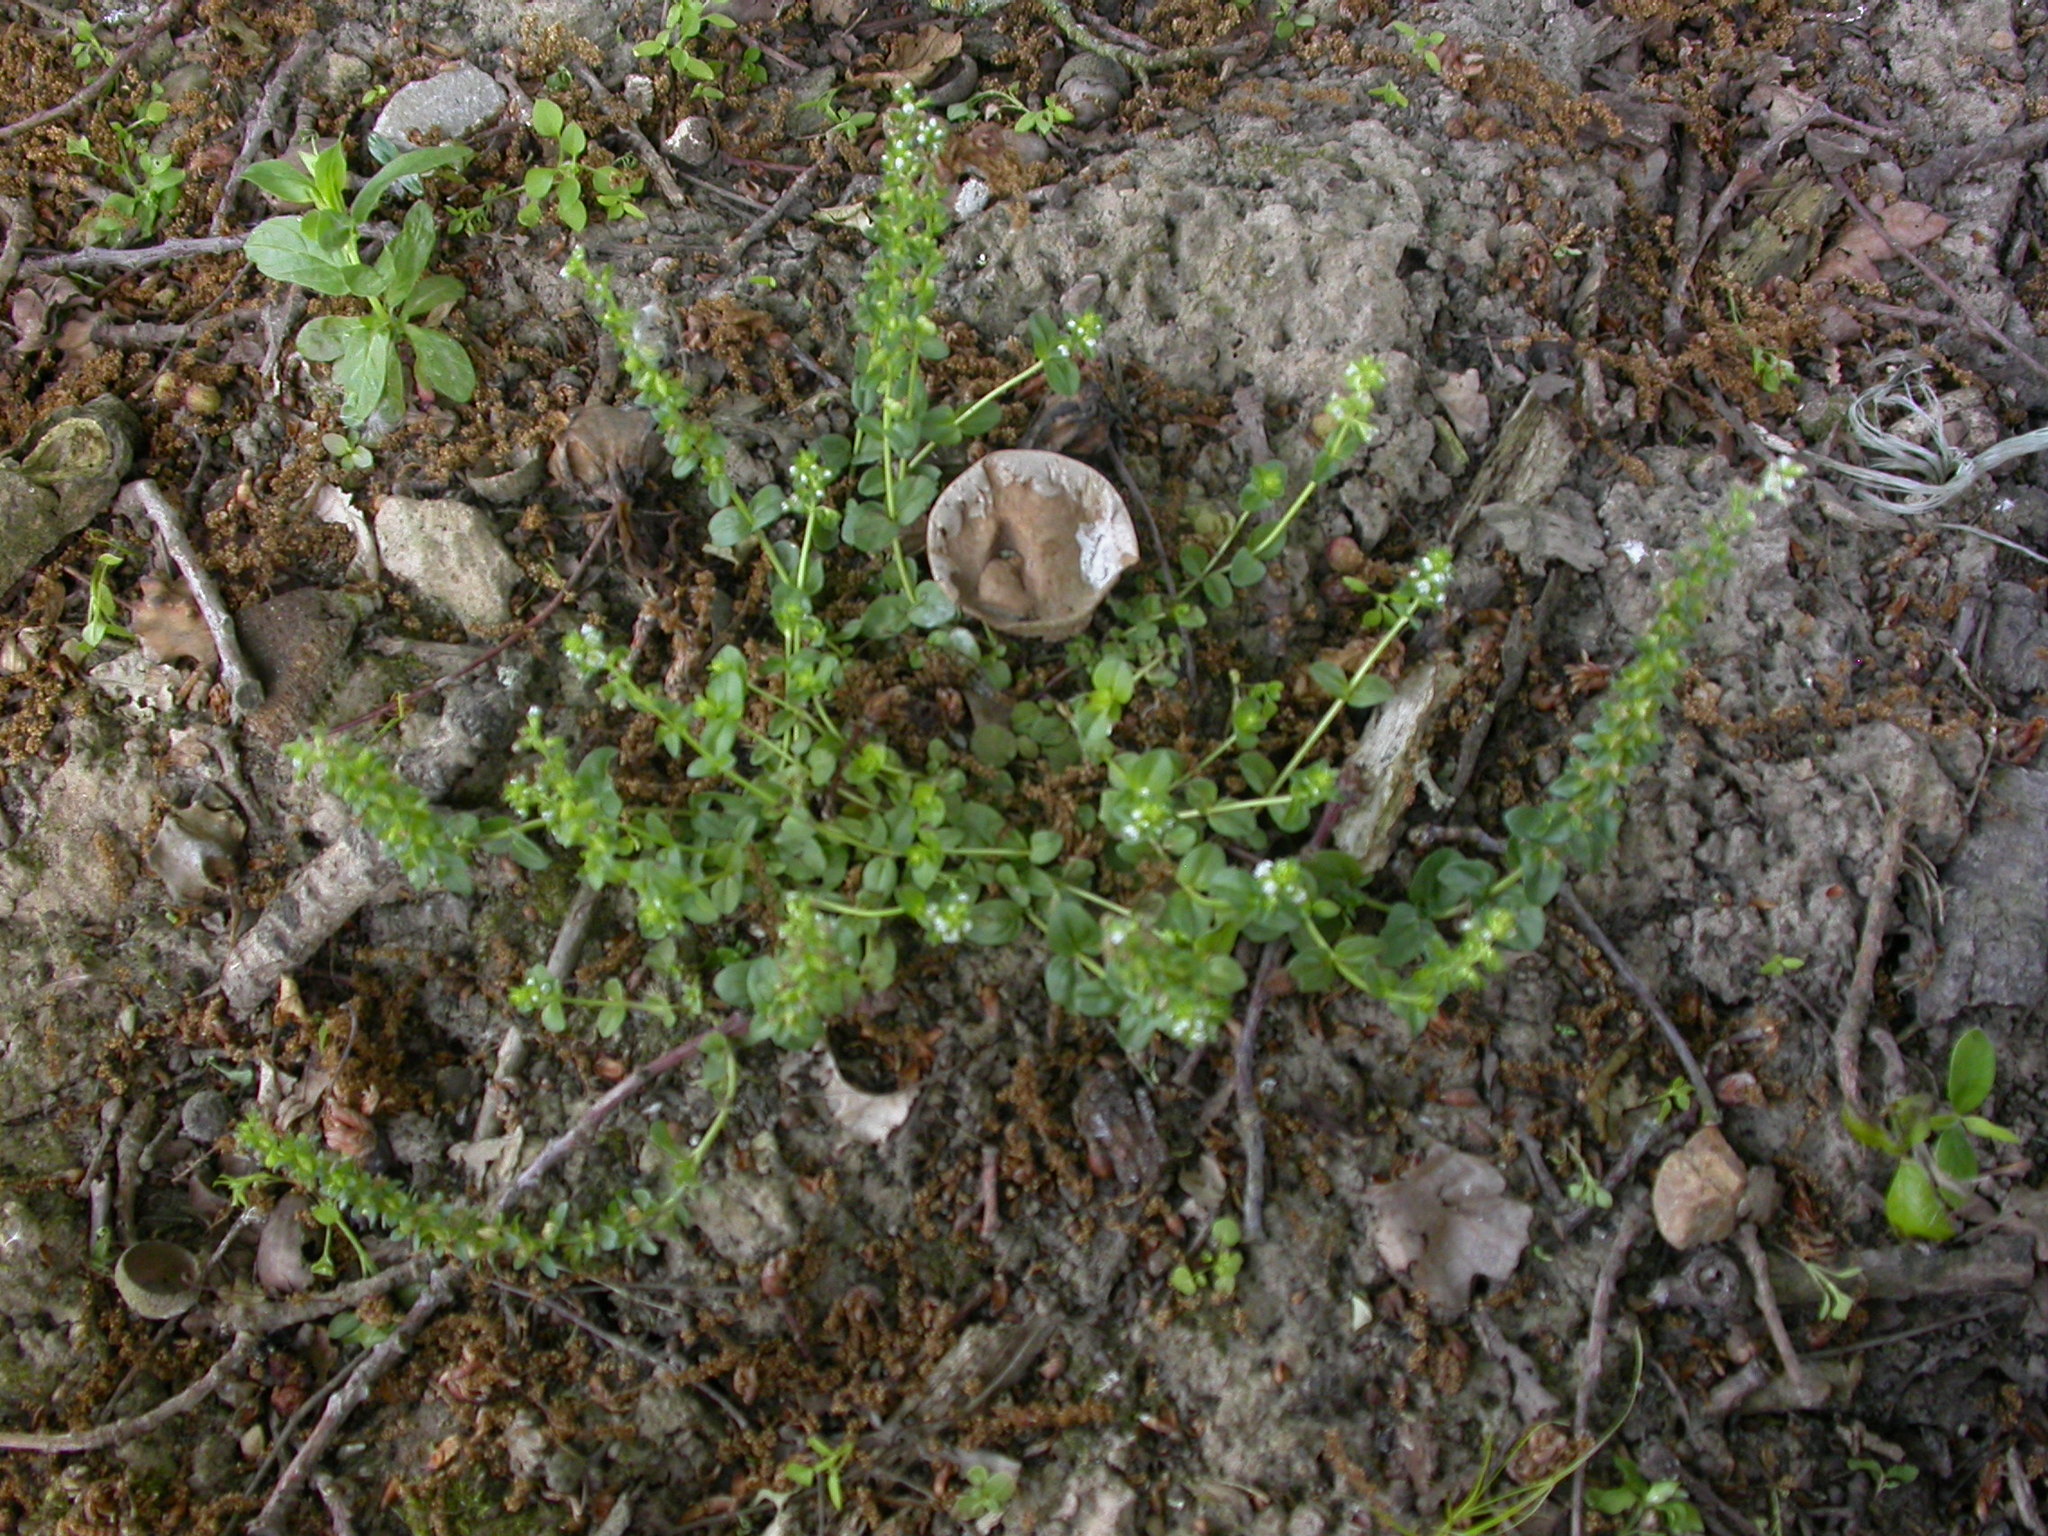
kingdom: Plantae
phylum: Tracheophyta
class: Magnoliopsida
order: Lamiales
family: Plantaginaceae
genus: Veronica
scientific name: Veronica serpyllifolia
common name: Thyme-leaved speedwell
